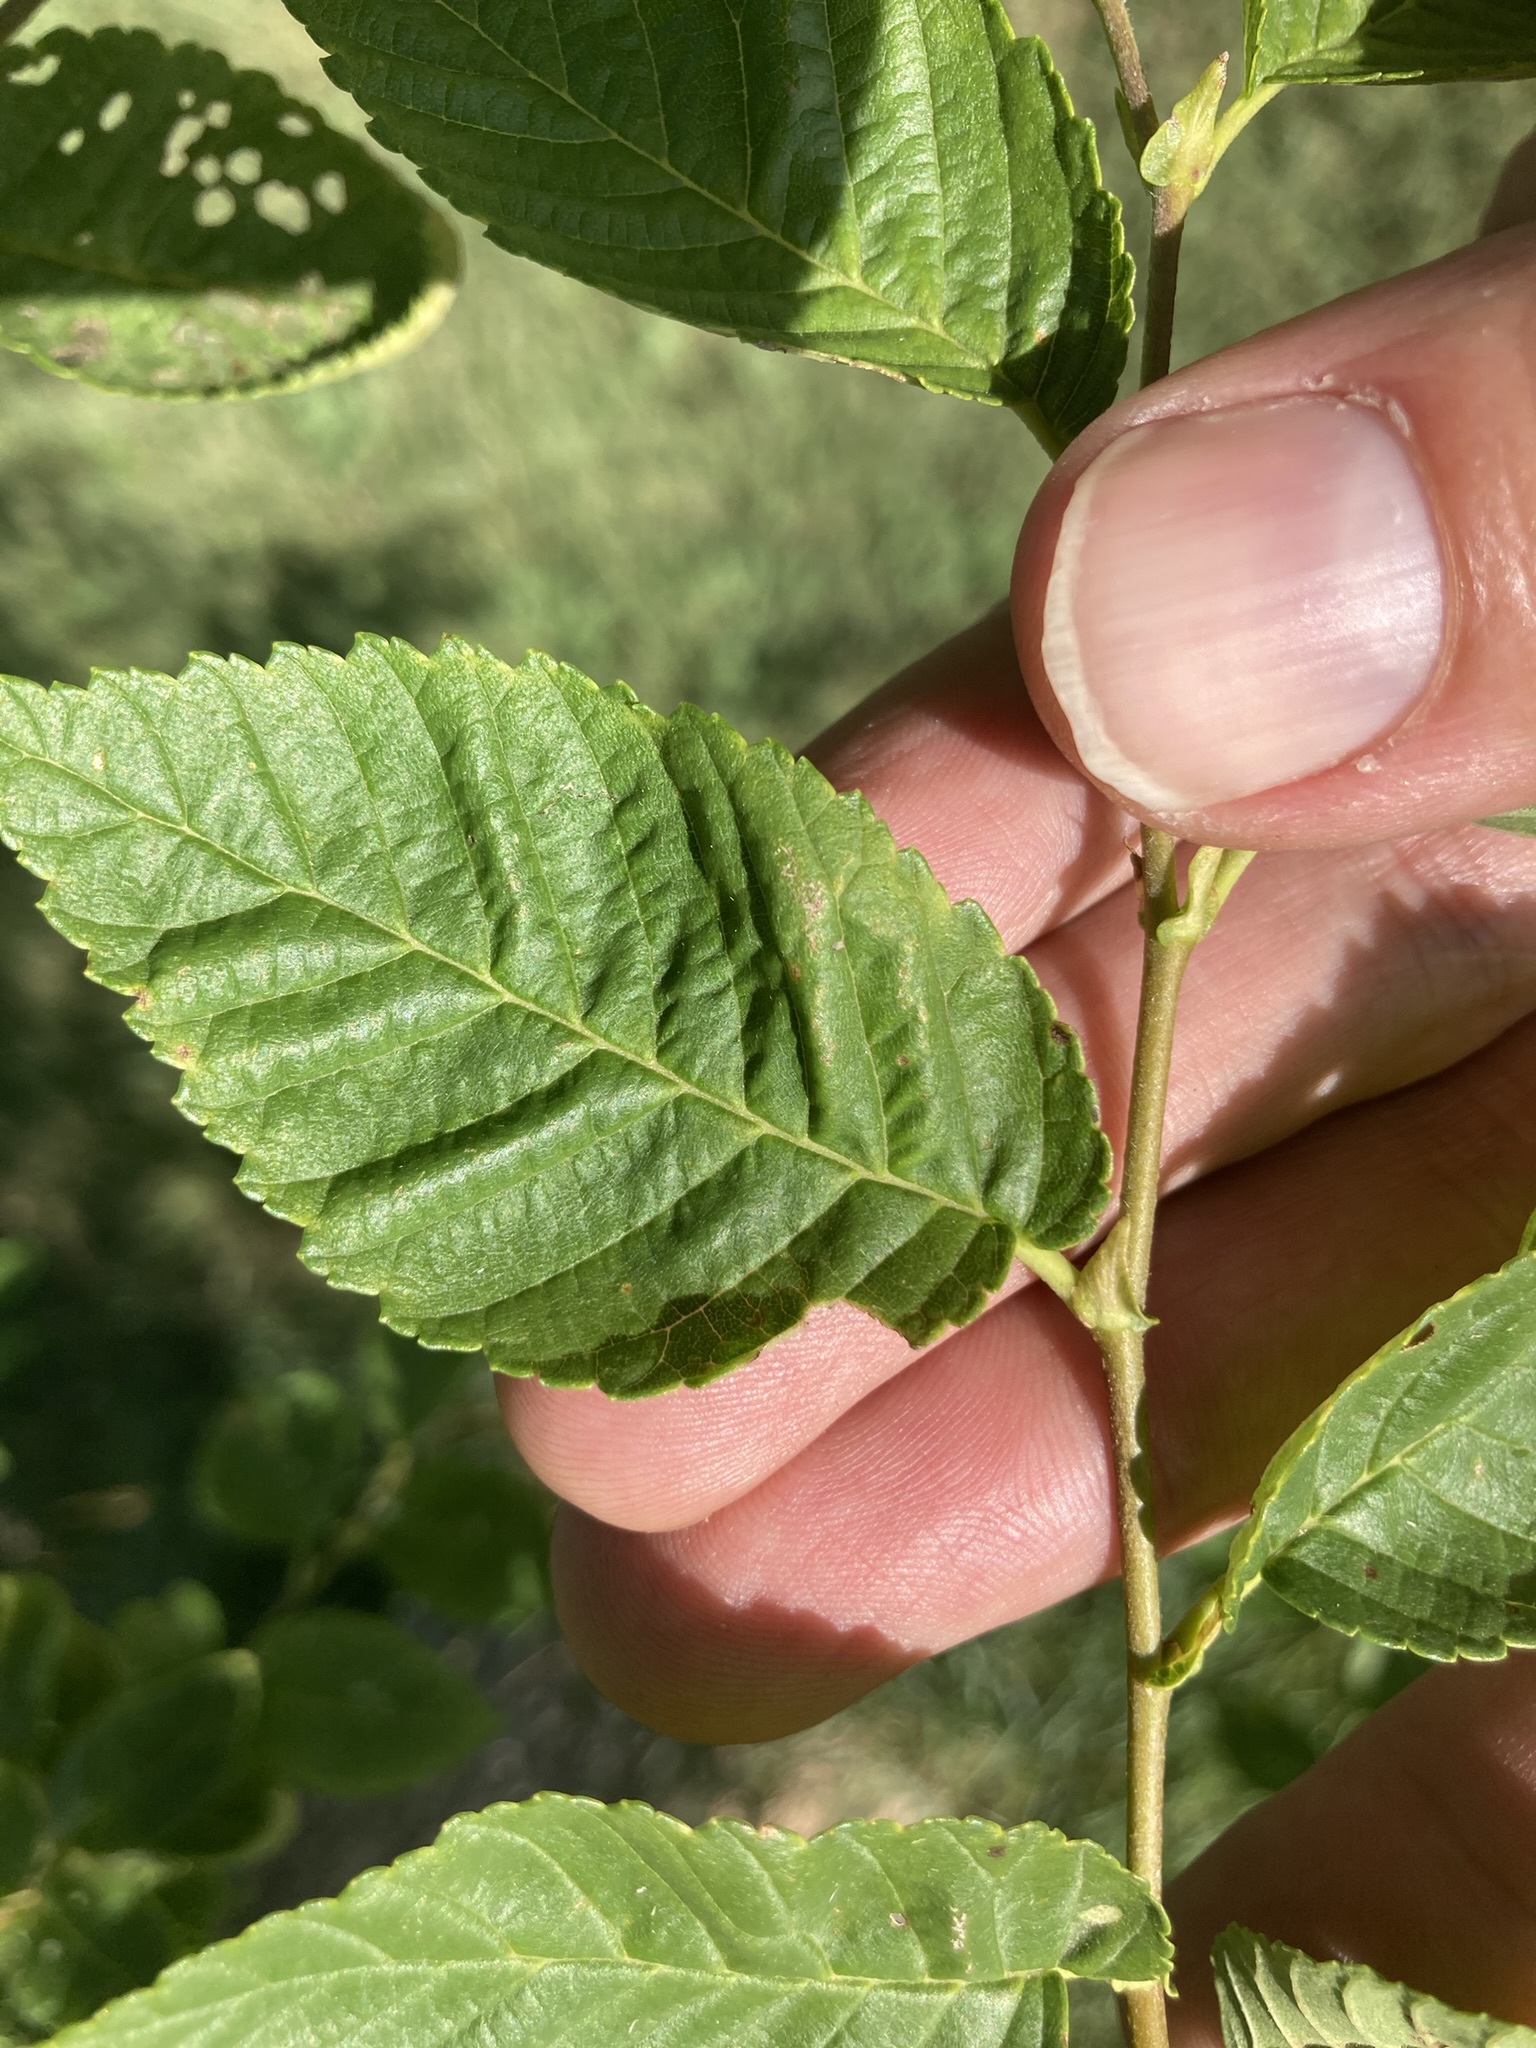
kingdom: Plantae
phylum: Tracheophyta
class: Magnoliopsida
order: Rosales
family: Ulmaceae
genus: Ulmus
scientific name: Ulmus pumila
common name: Siberian elm
